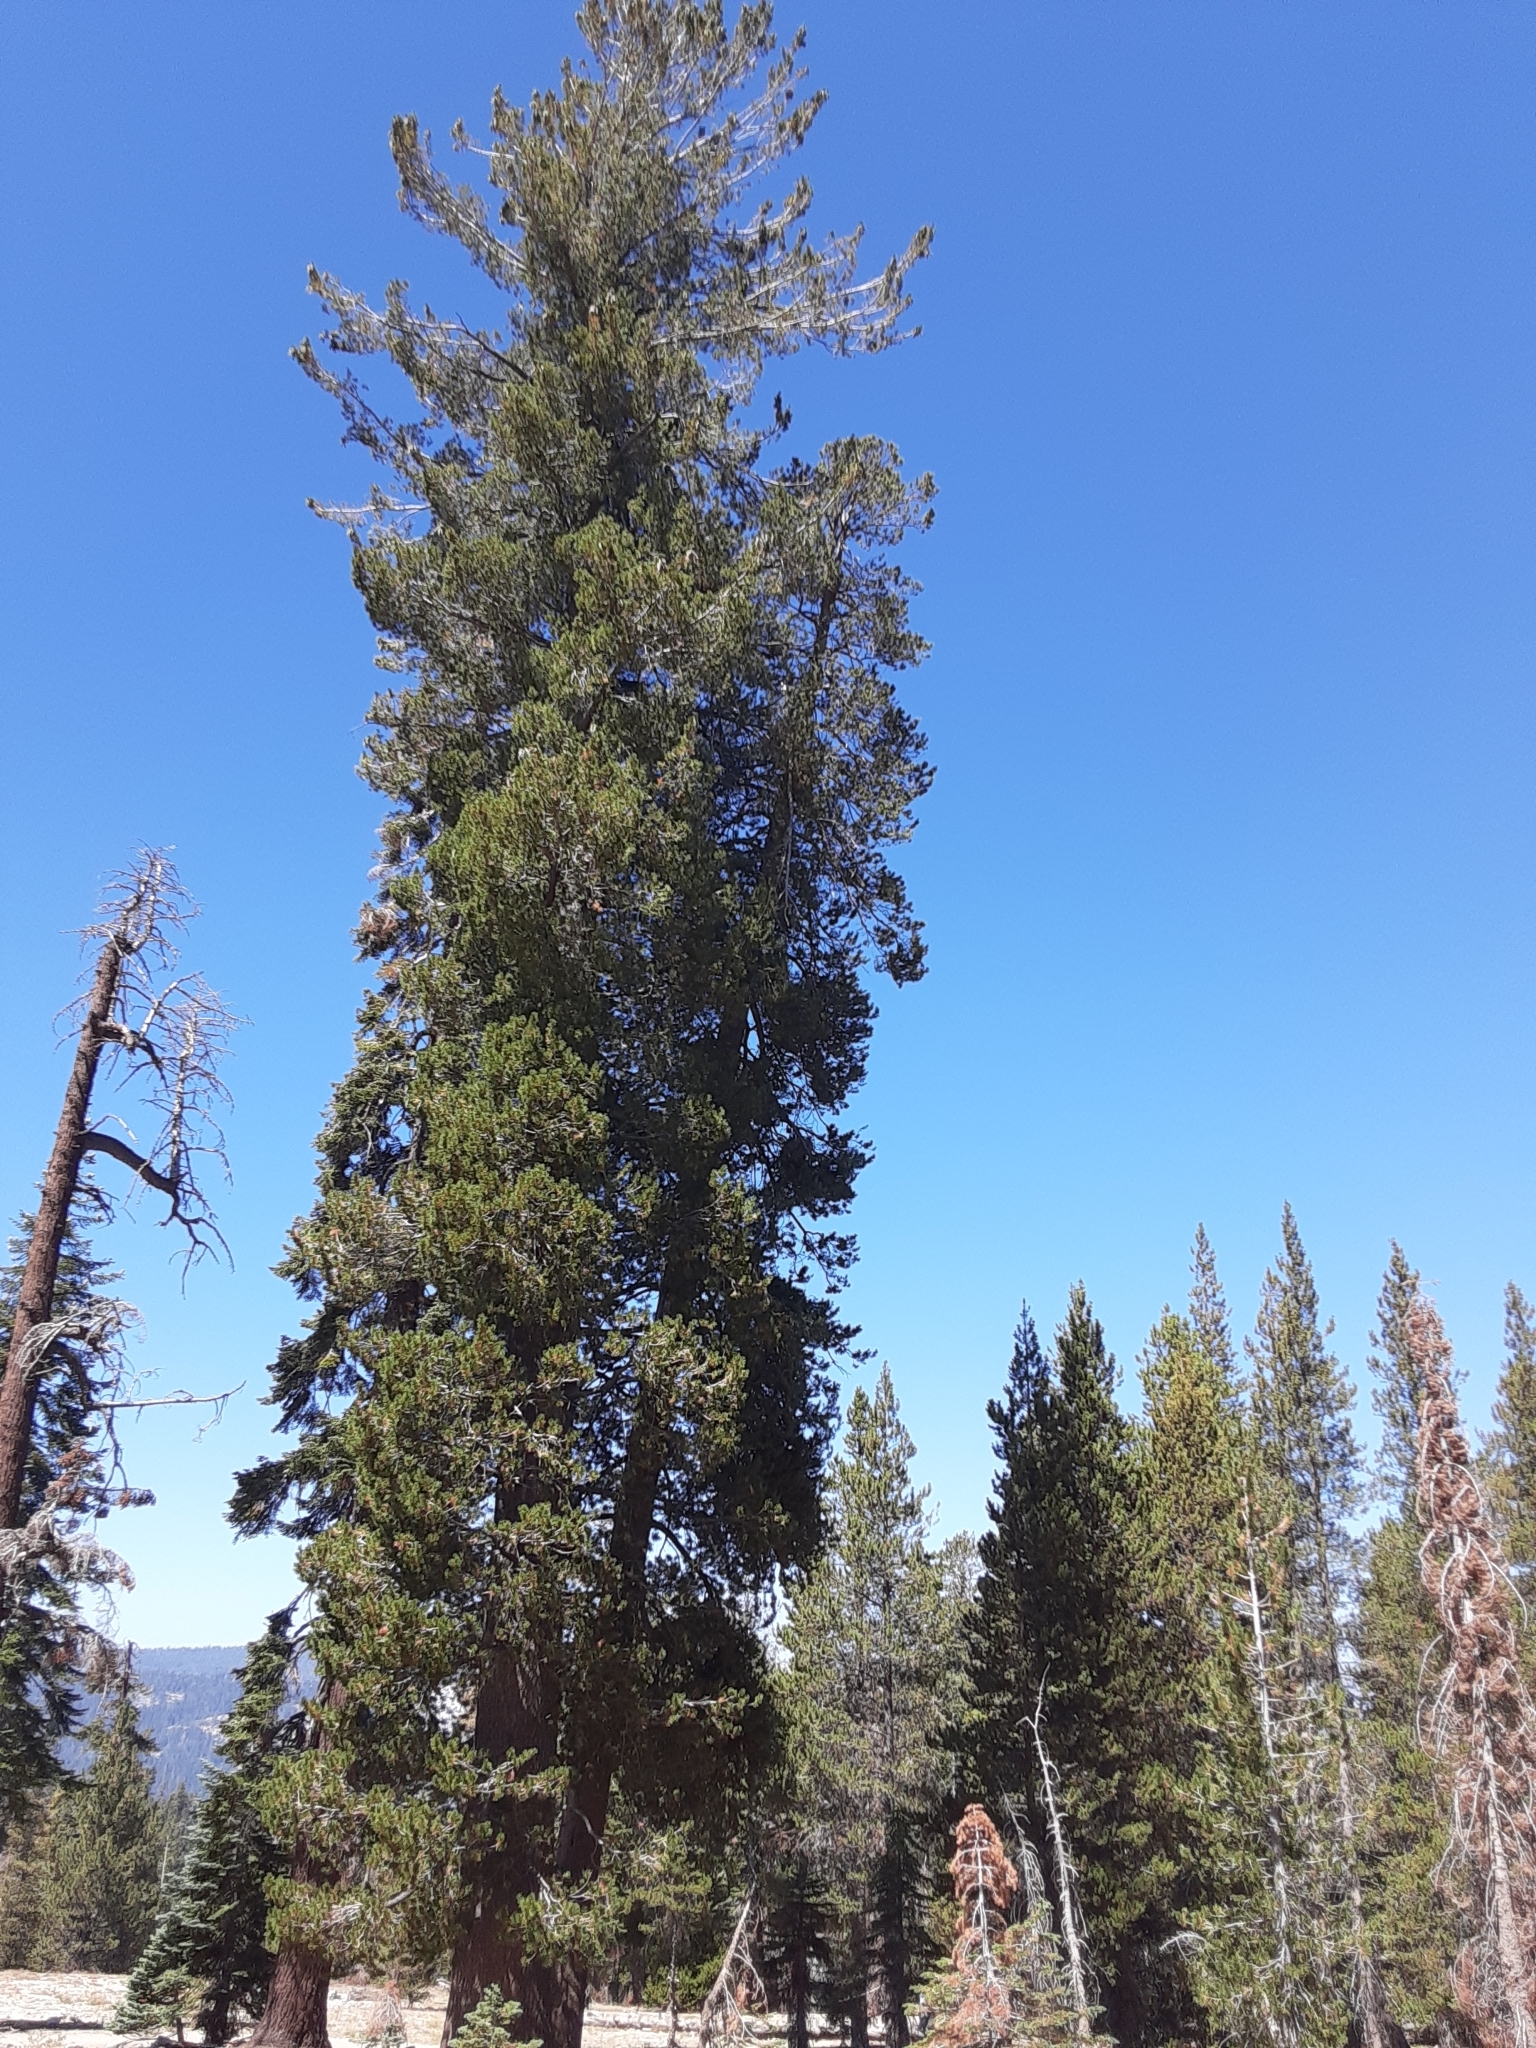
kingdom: Plantae
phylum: Tracheophyta
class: Pinopsida
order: Pinales
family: Pinaceae
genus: Pinus
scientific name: Pinus monticola
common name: Western white pine
